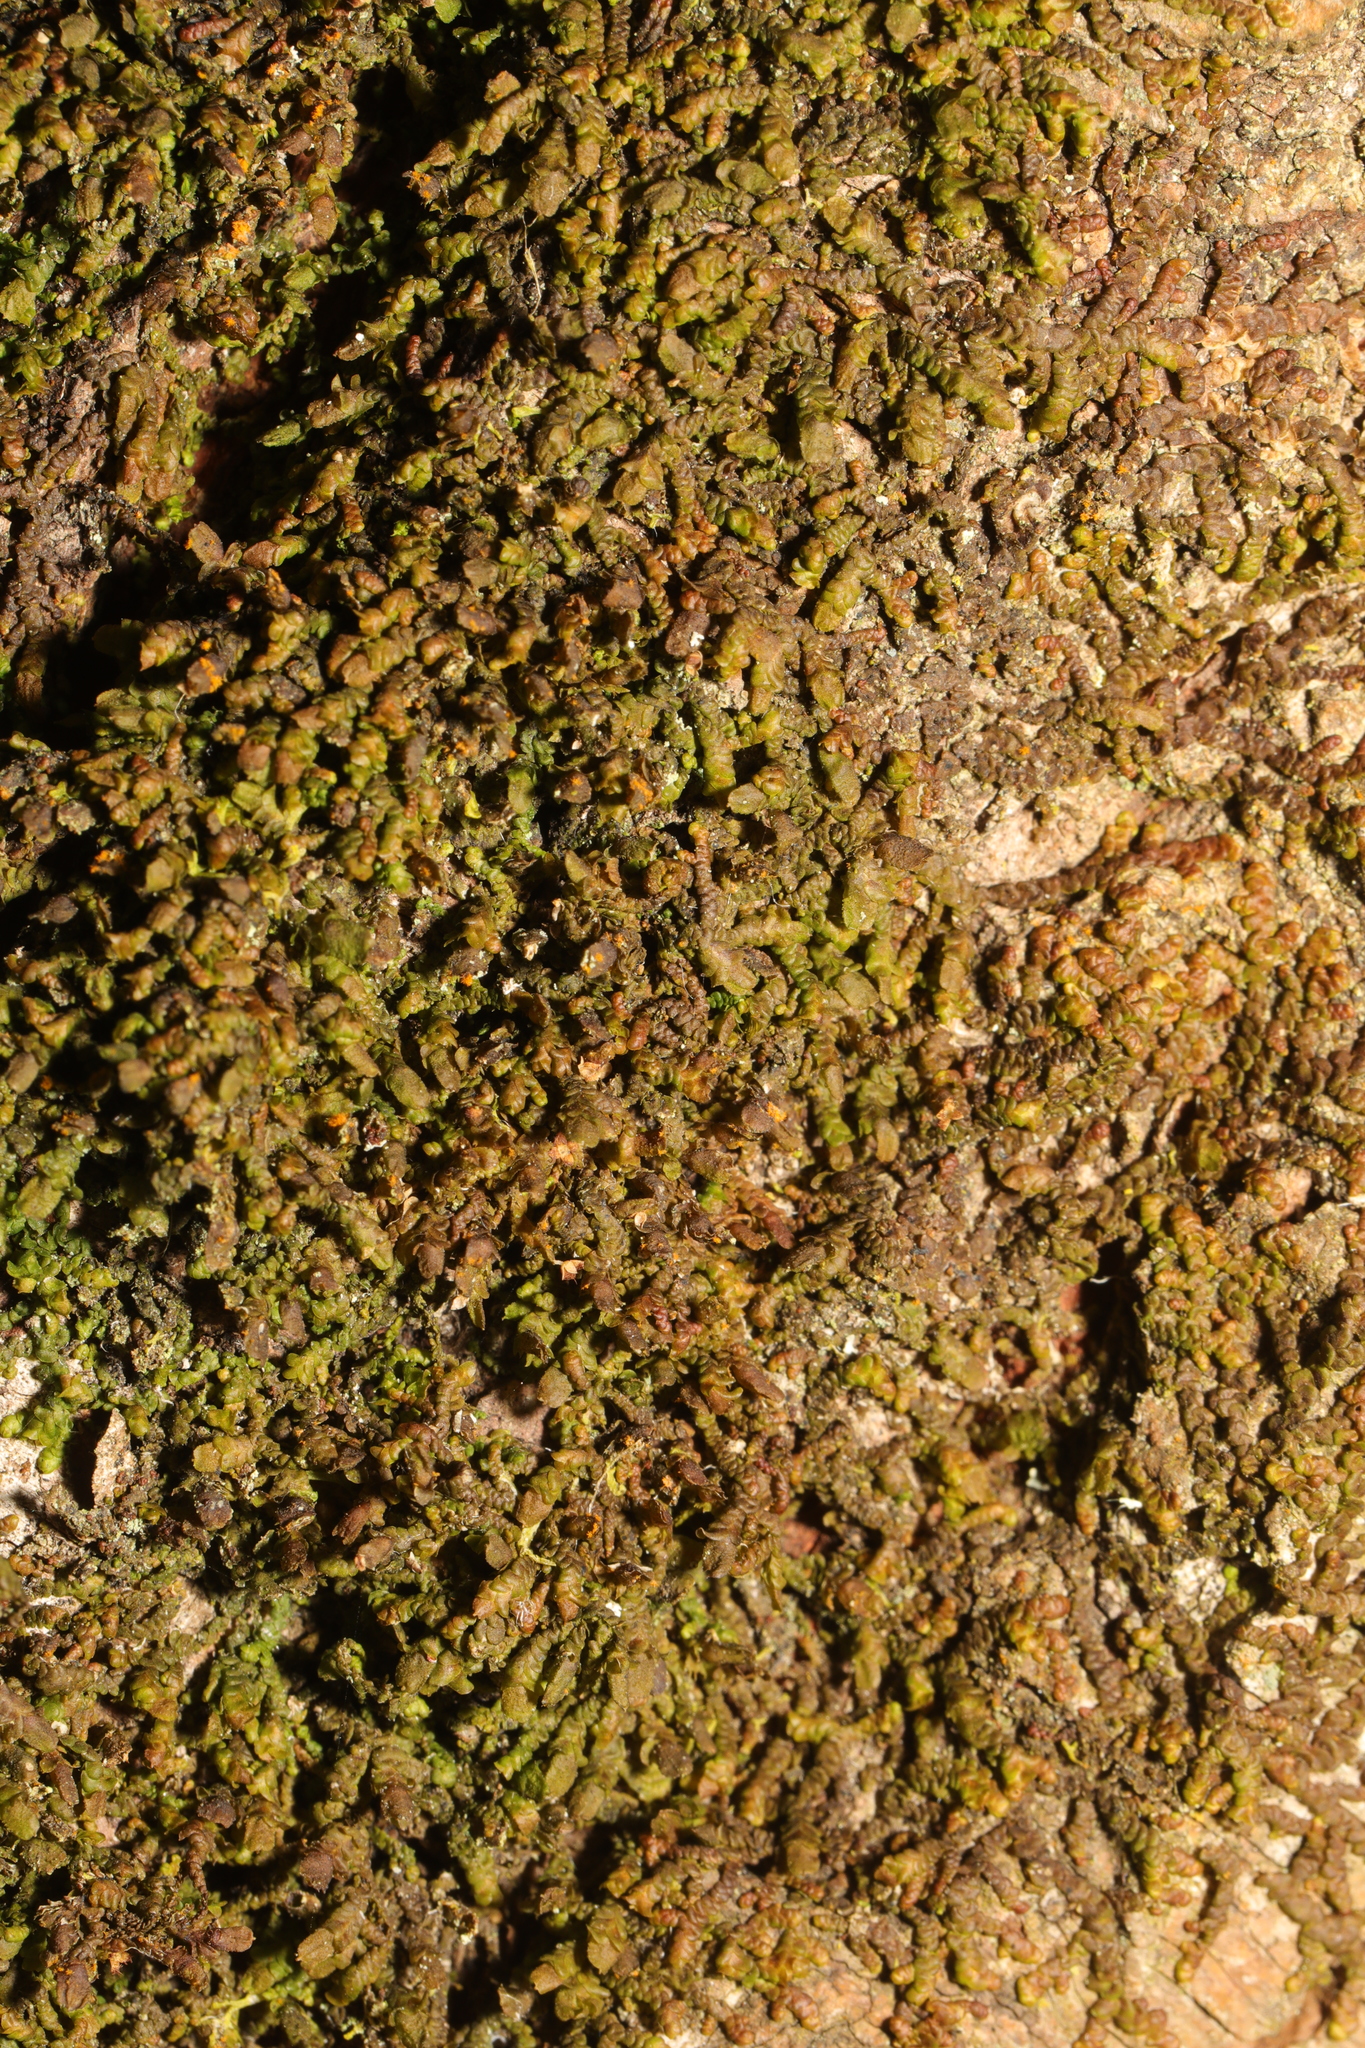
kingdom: Plantae
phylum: Marchantiophyta
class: Jungermanniopsida
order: Porellales
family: Frullaniaceae
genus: Frullania
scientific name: Frullania dilatata
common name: Dilated scalewort
